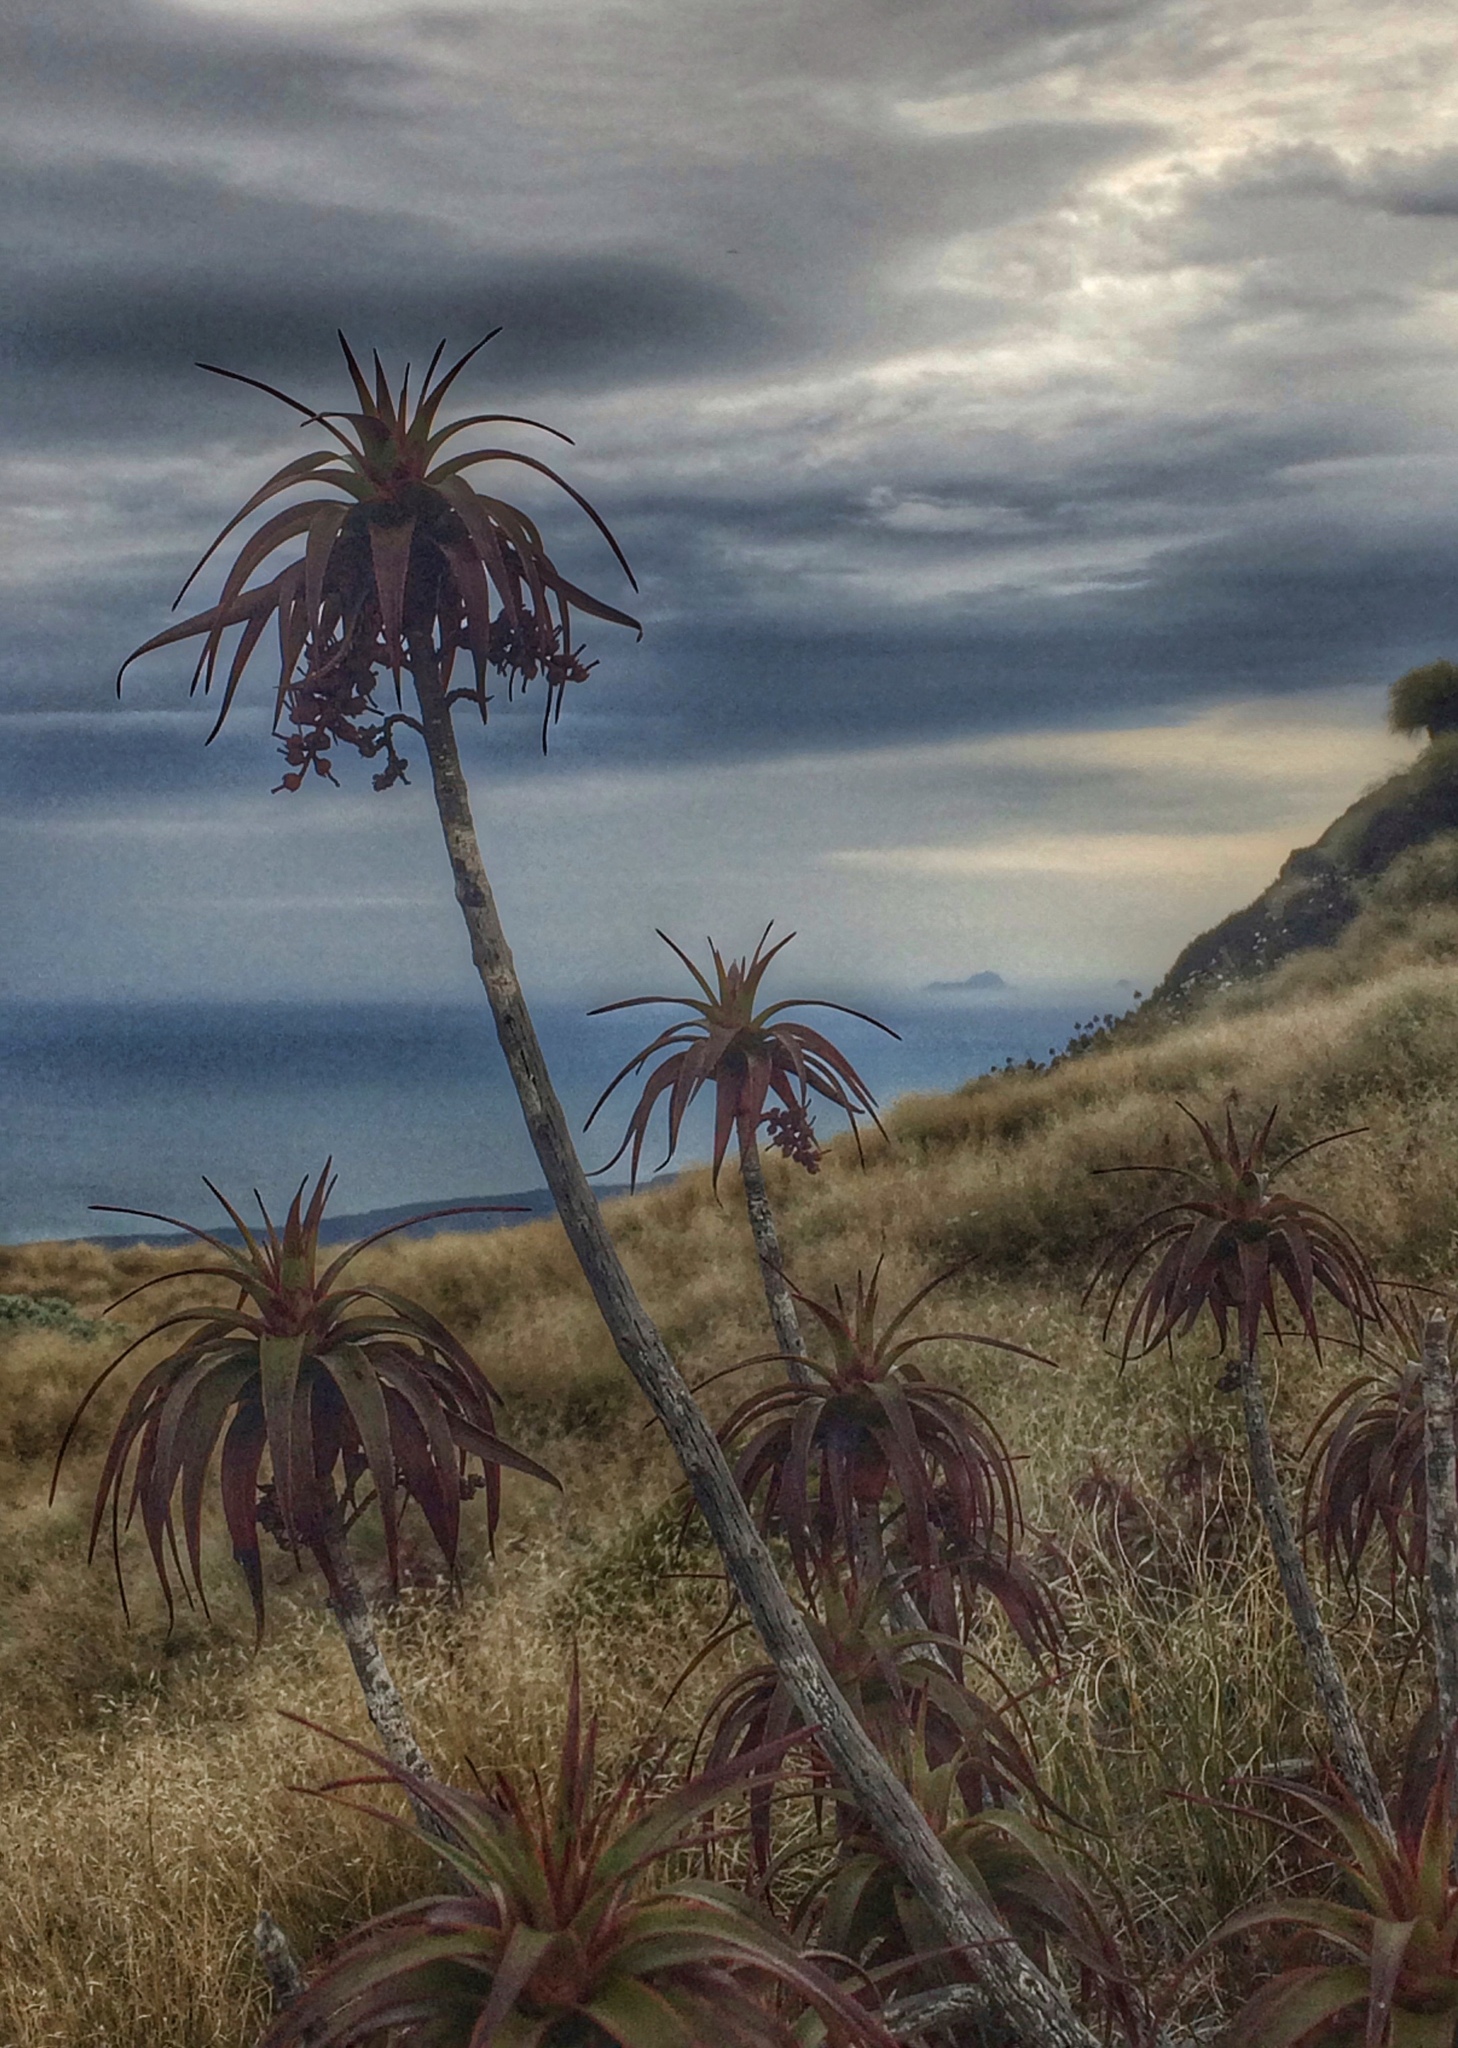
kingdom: Plantae
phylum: Tracheophyta
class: Magnoliopsida
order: Ericales
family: Ericaceae
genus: Dracophyllum
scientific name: Dracophyllum menziesii
